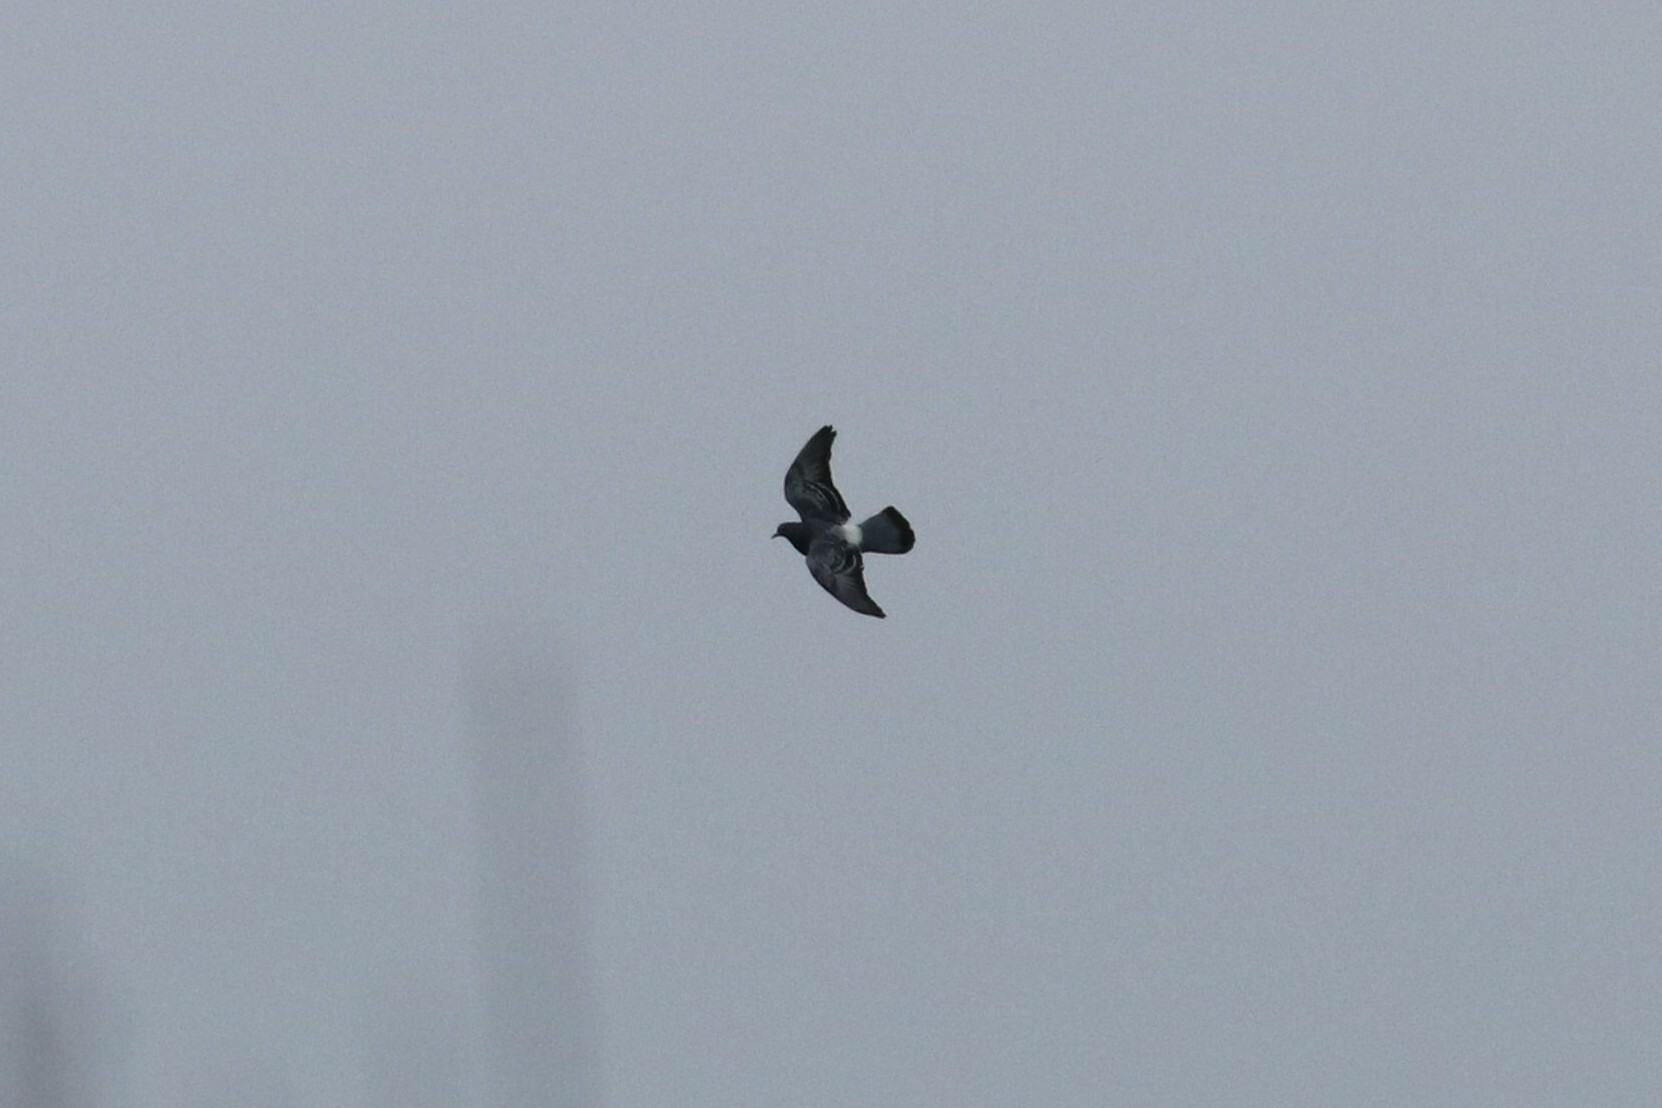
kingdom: Animalia
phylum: Chordata
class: Aves
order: Columbiformes
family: Columbidae
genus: Columba
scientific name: Columba livia
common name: Rock pigeon
